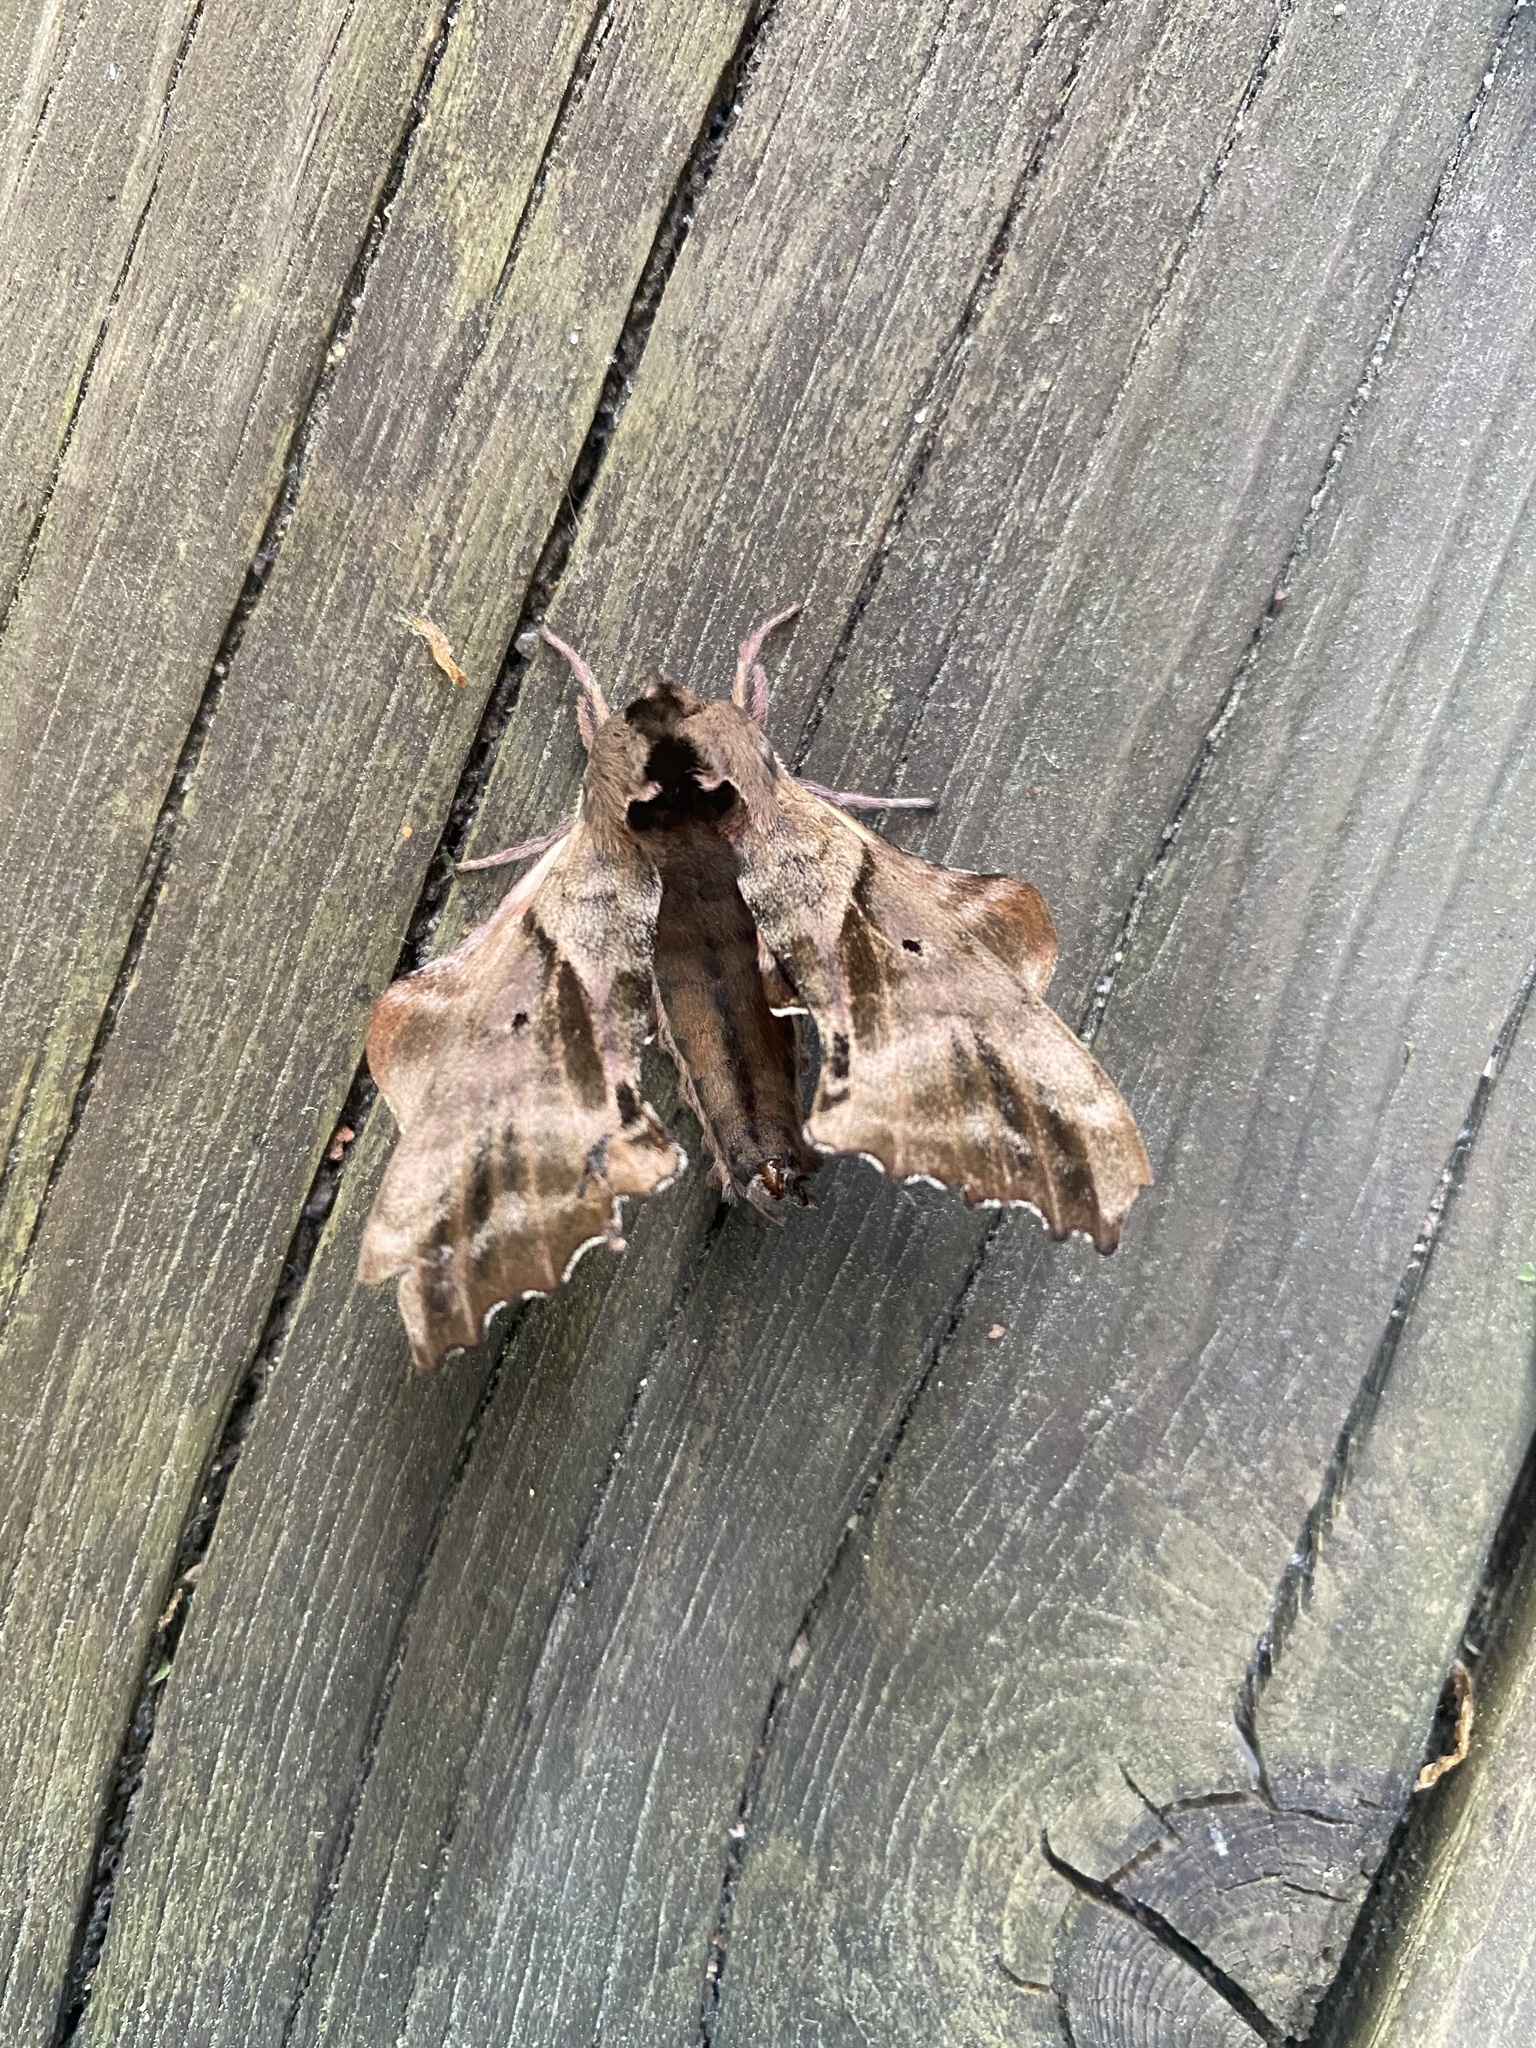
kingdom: Animalia
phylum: Arthropoda
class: Insecta
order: Lepidoptera
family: Sphingidae
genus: Paonias
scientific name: Paonias excaecata
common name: Blind-eyed sphinx
